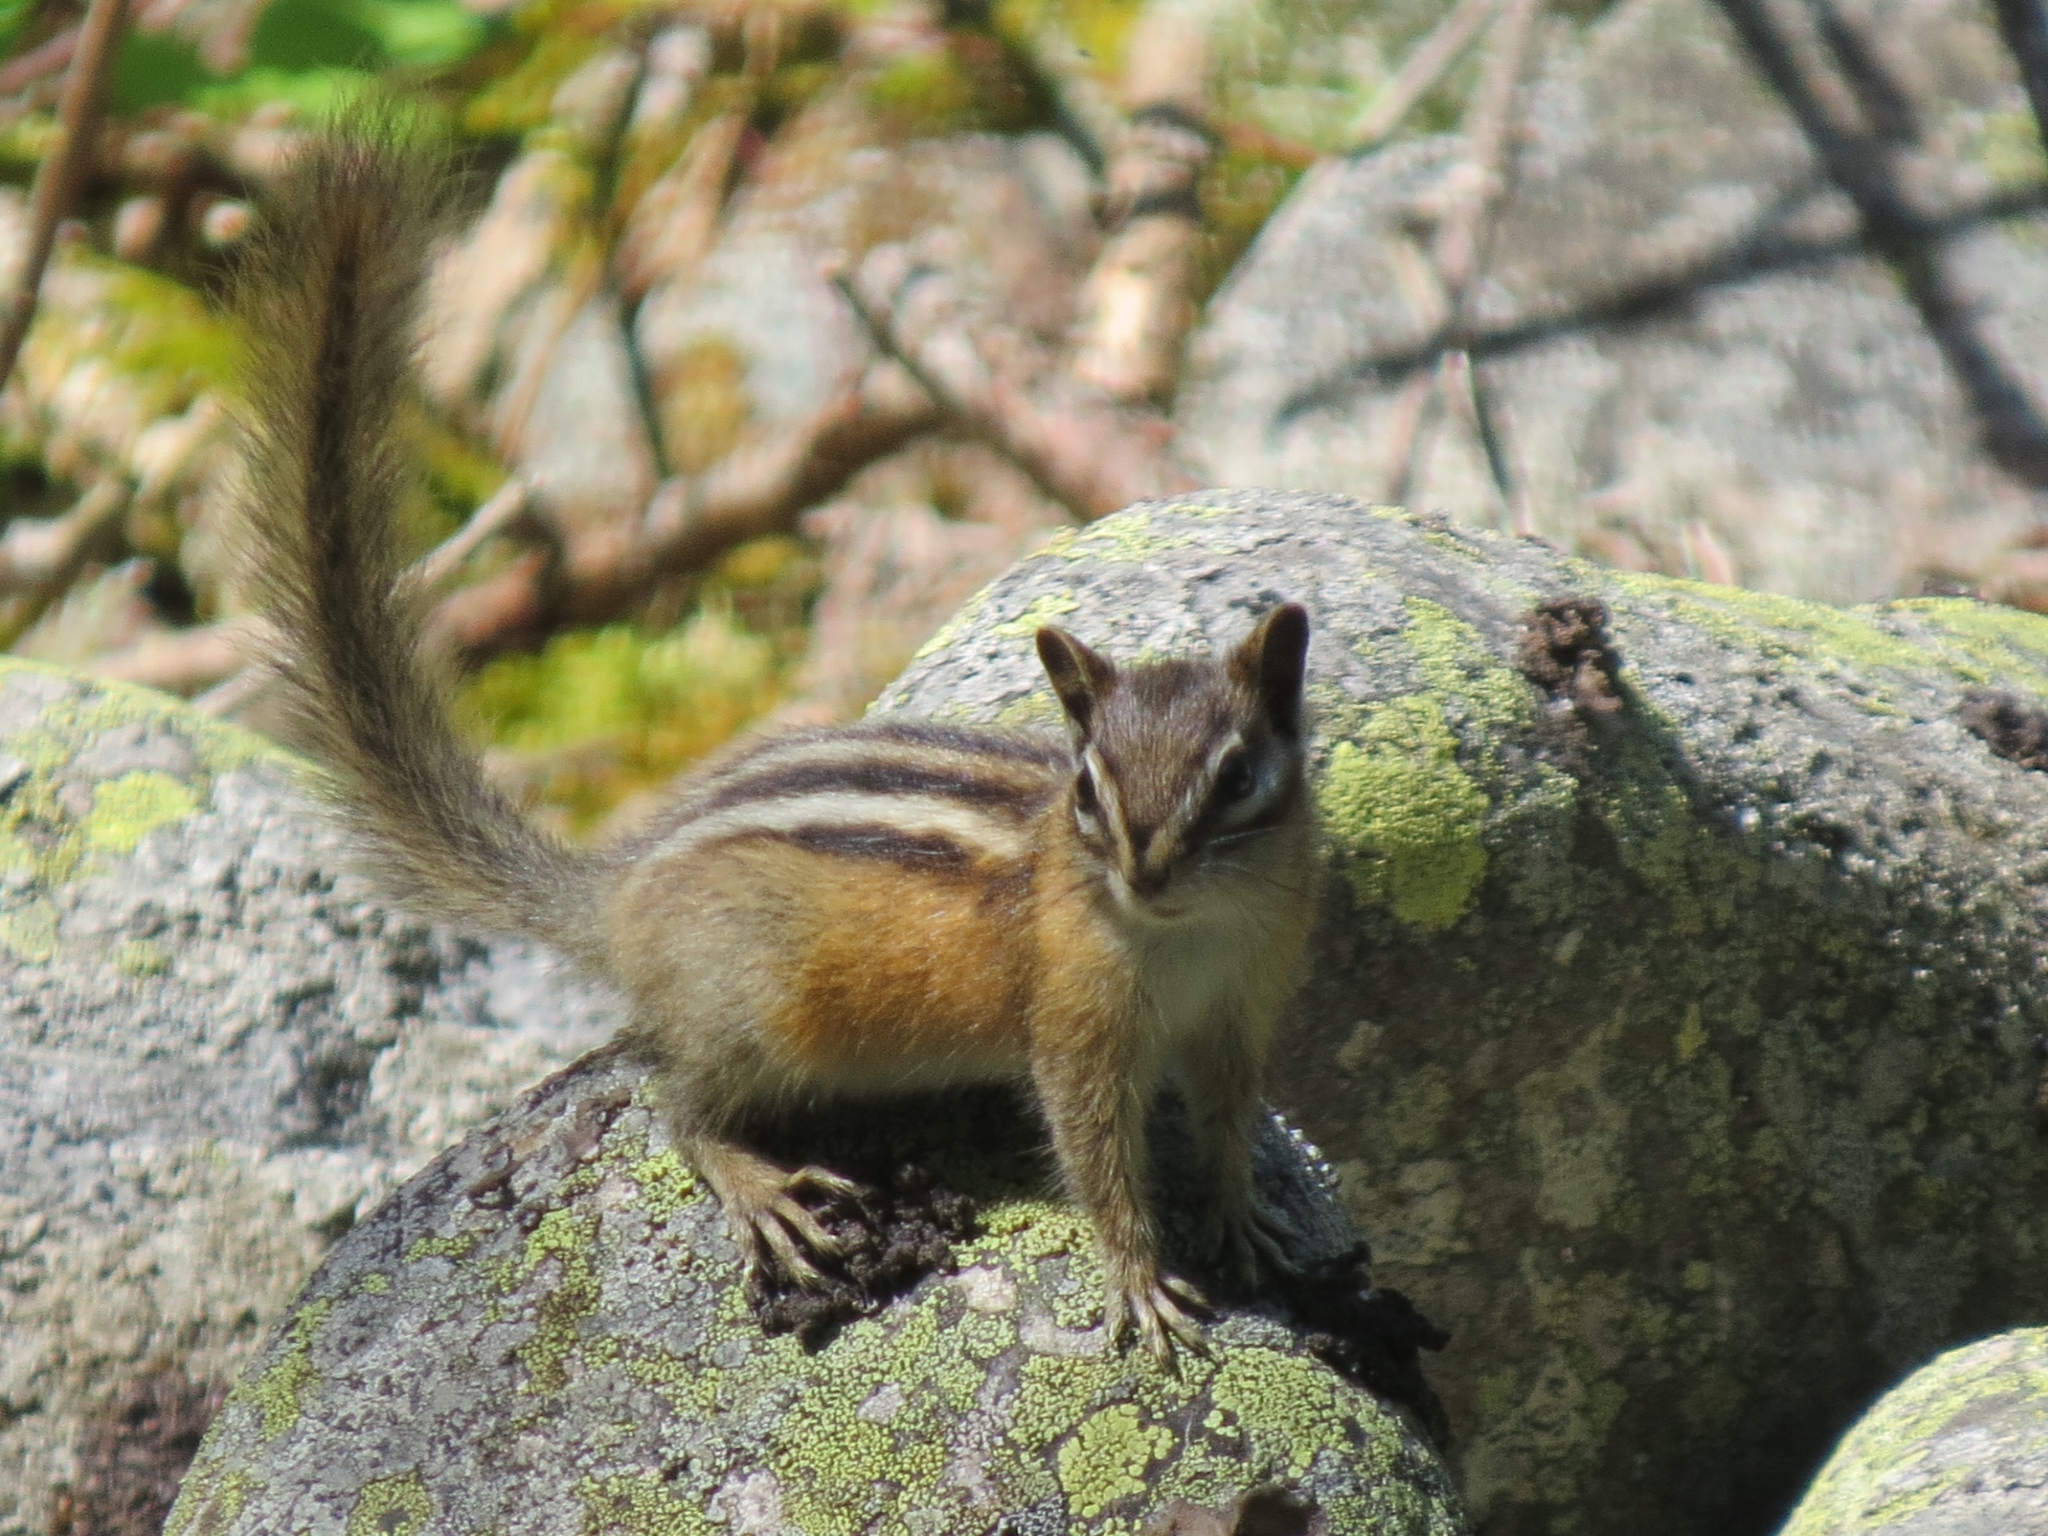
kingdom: Animalia
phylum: Chordata
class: Mammalia
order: Rodentia
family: Sciuridae
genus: Tamias
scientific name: Tamias minimus
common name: Least chipmunk
